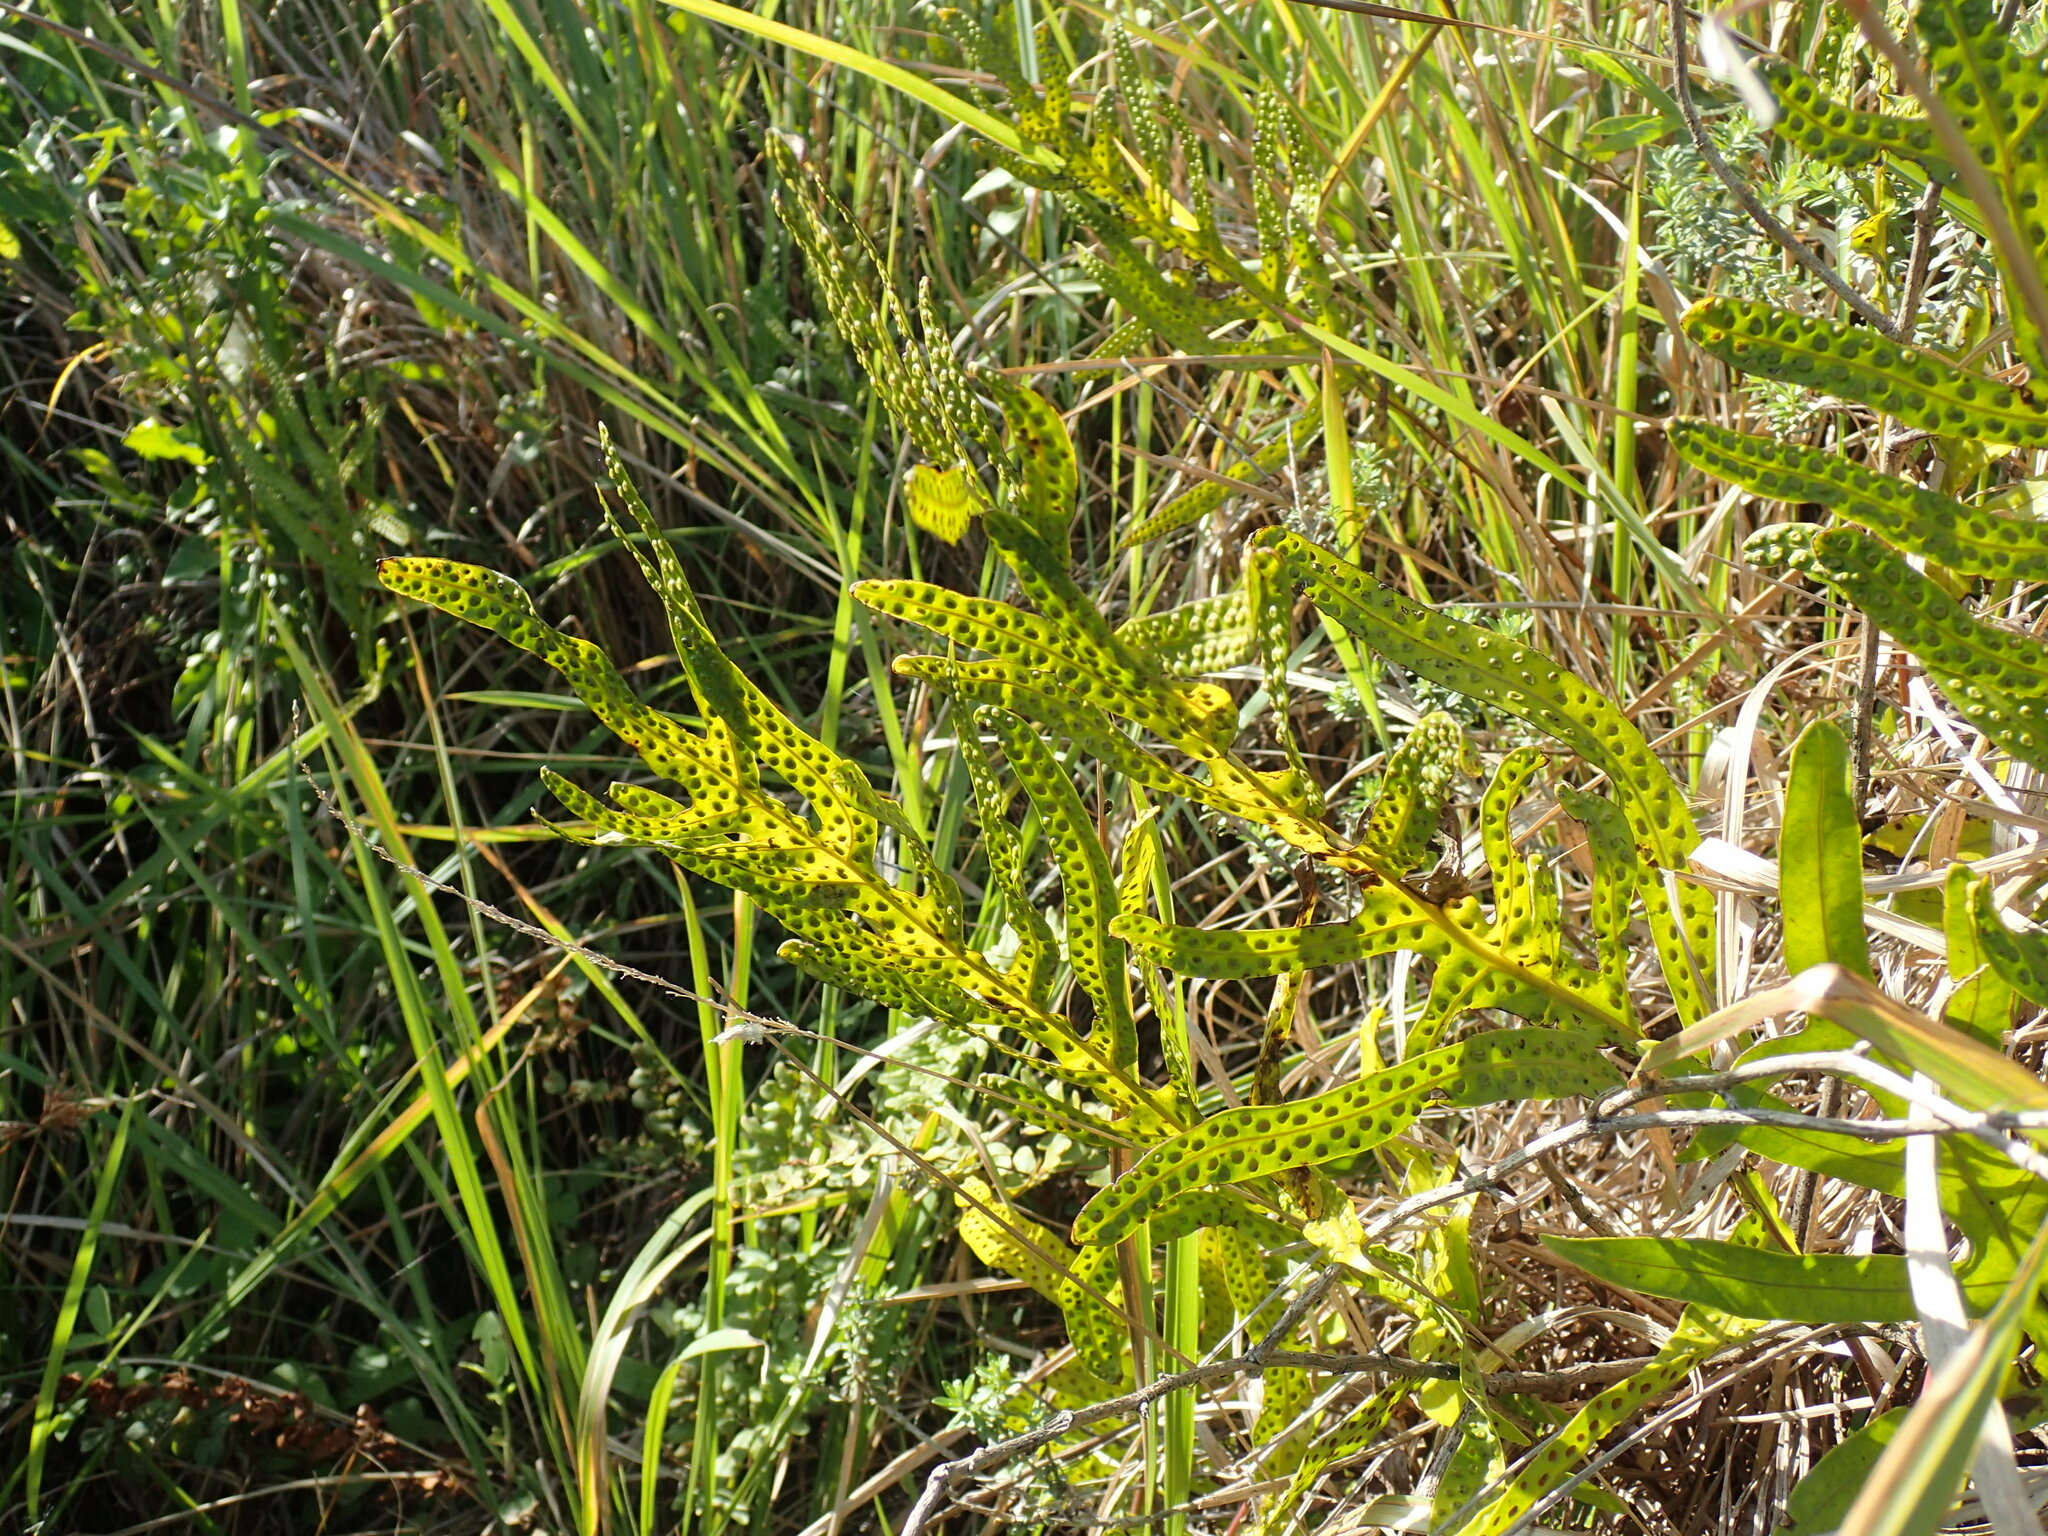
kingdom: Plantae
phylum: Tracheophyta
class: Polypodiopsida
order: Polypodiales
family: Polypodiaceae
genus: Microsorum
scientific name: Microsorum scolopendria
